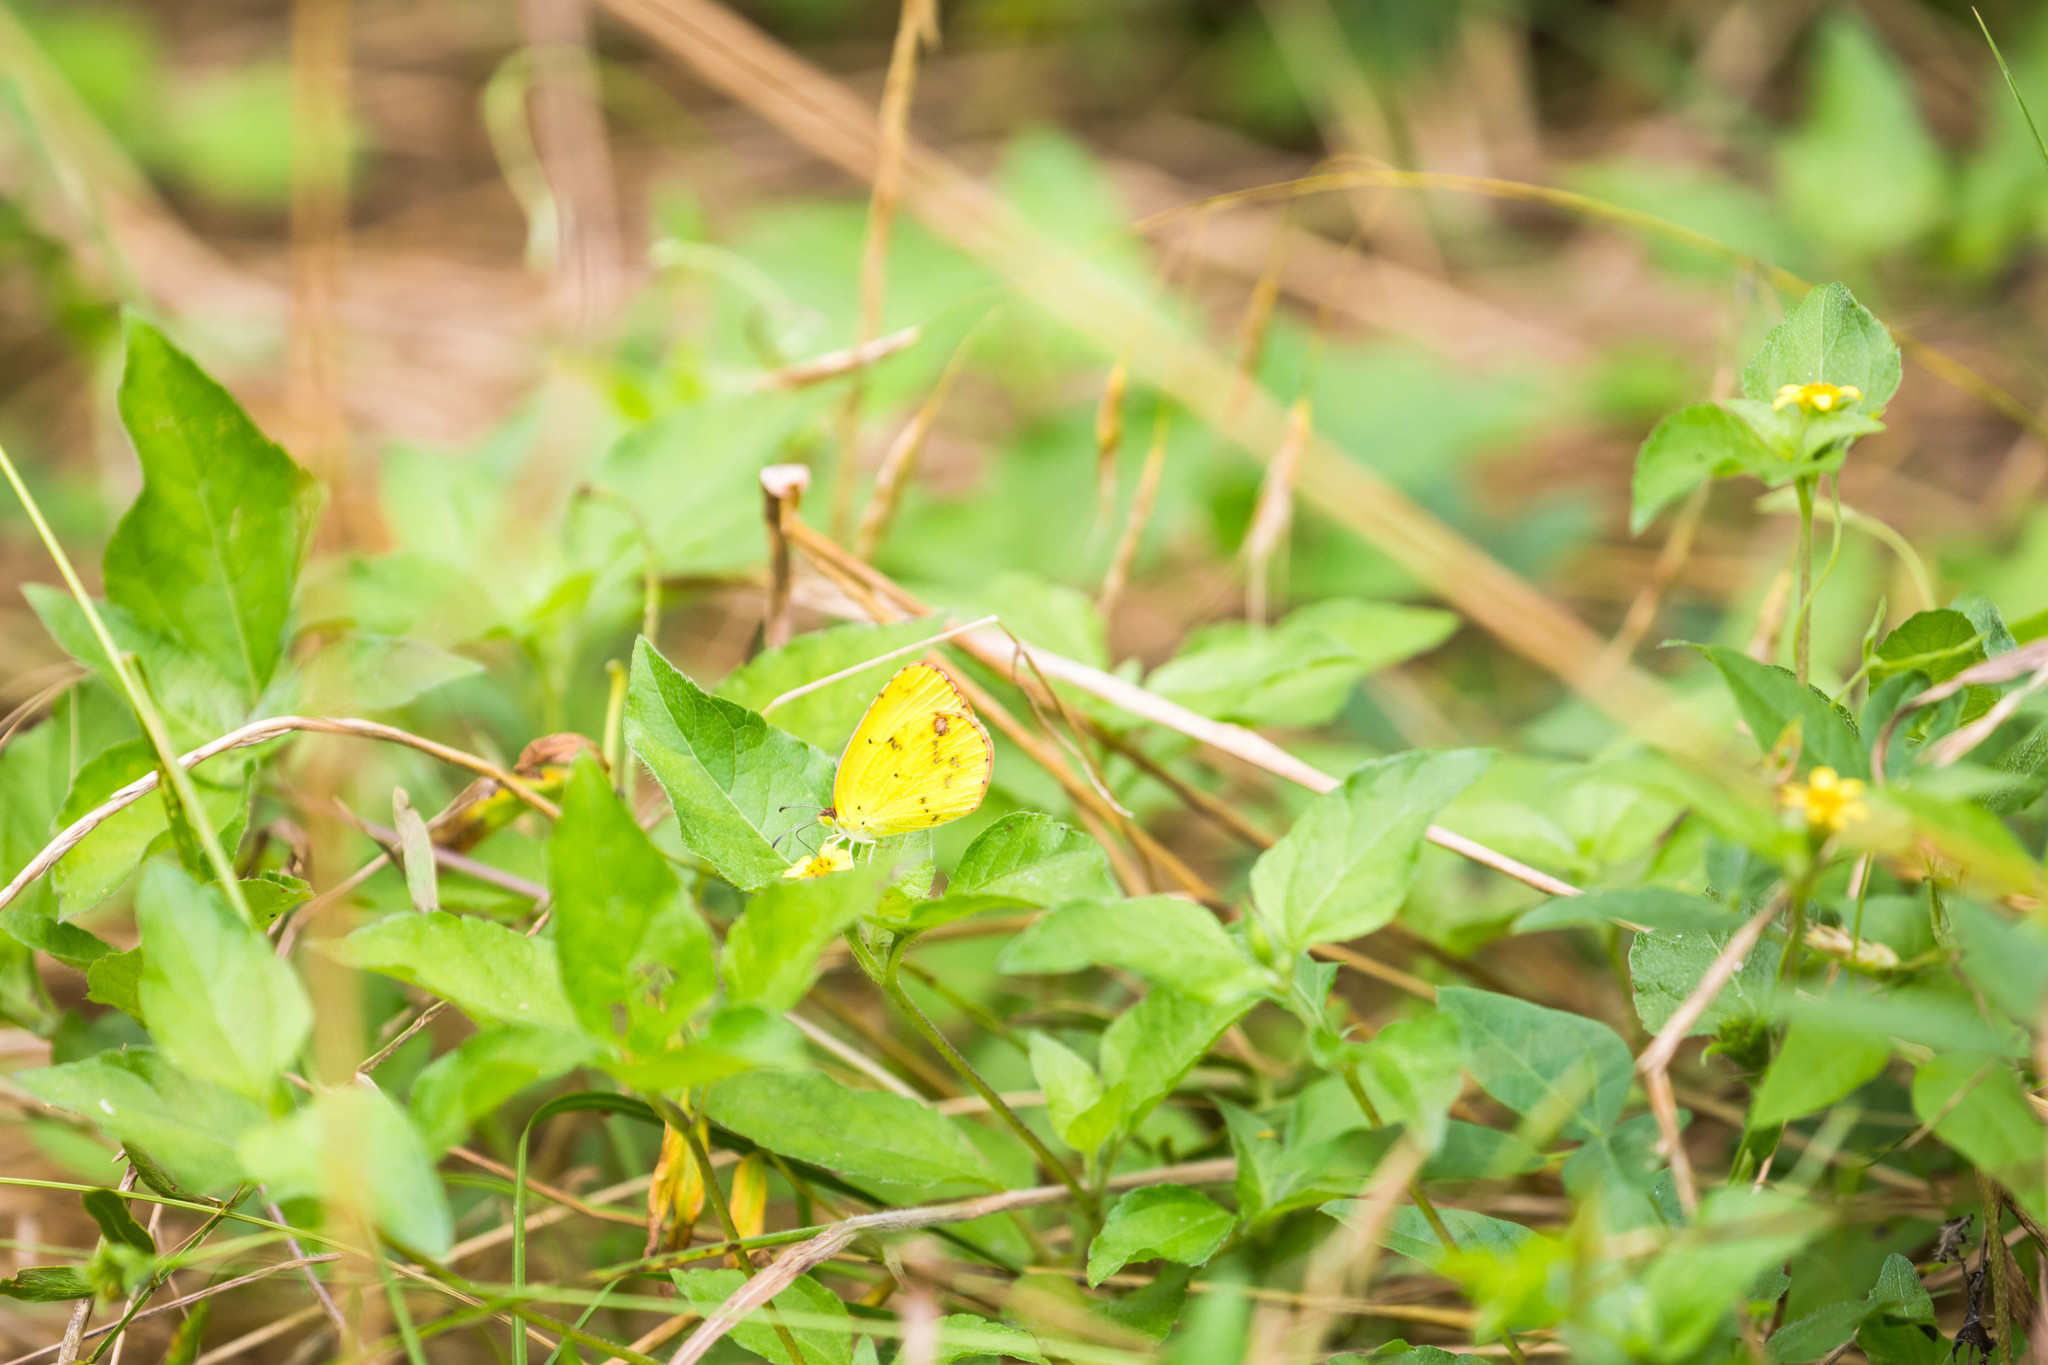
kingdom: Animalia
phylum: Arthropoda
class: Insecta
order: Lepidoptera
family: Pieridae
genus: Pyrisitia
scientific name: Pyrisitia lisa
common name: Little yellow
